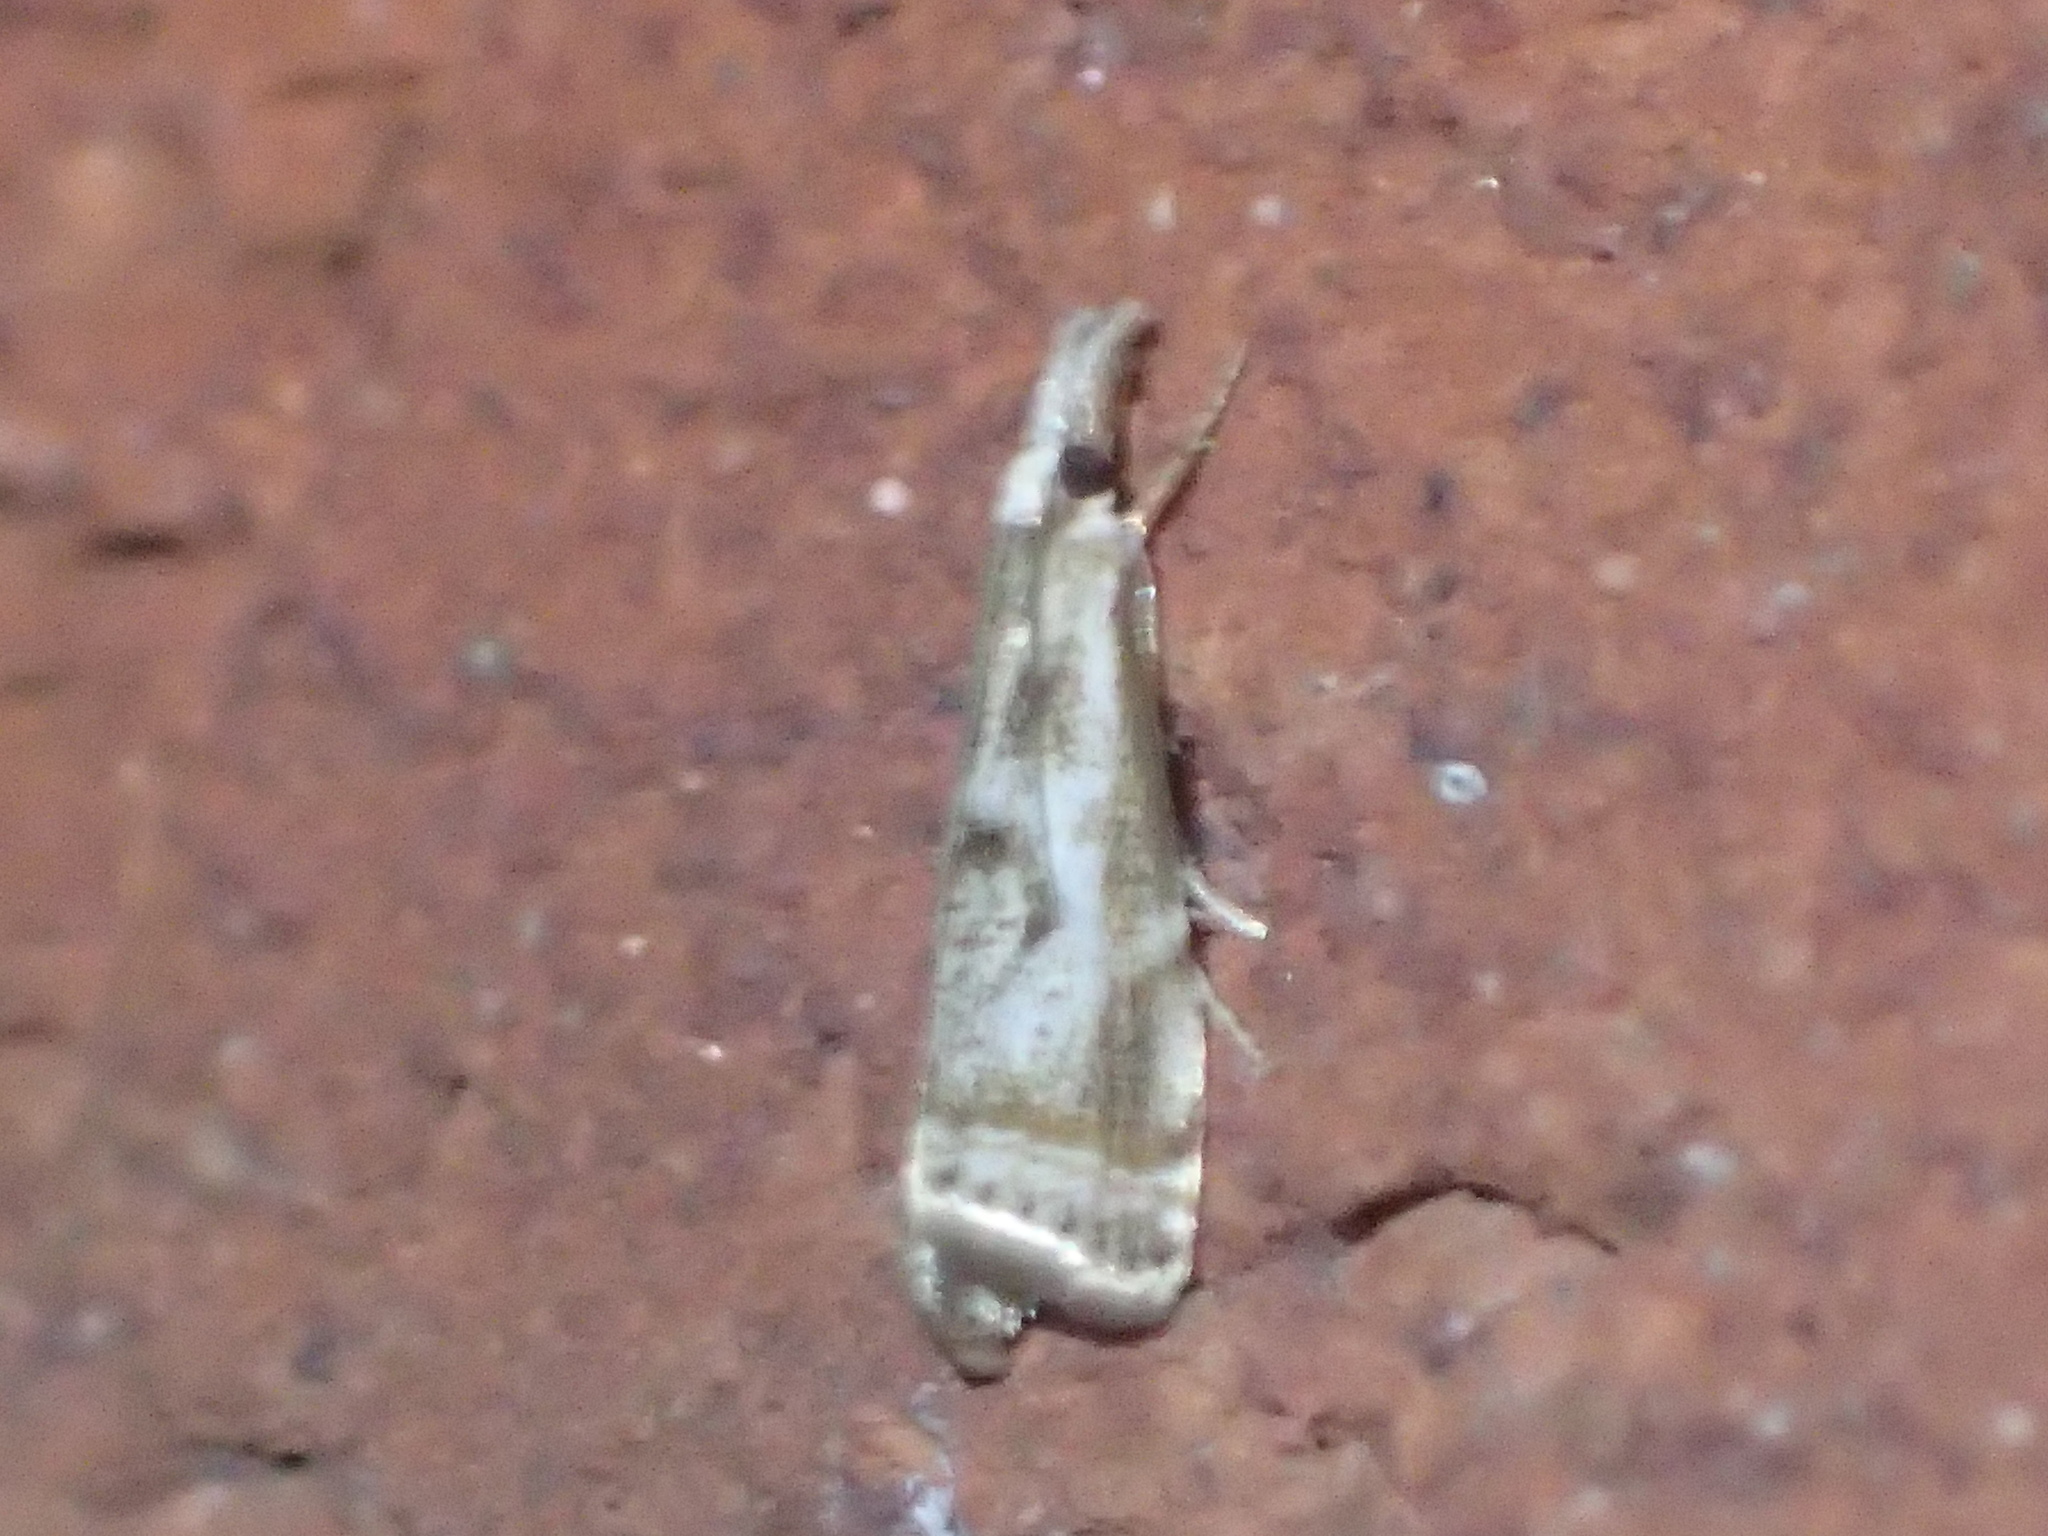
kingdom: Animalia
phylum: Arthropoda
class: Insecta
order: Lepidoptera
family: Crambidae
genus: Microcrambus
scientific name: Microcrambus elegans
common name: Elegant grass-veneer
